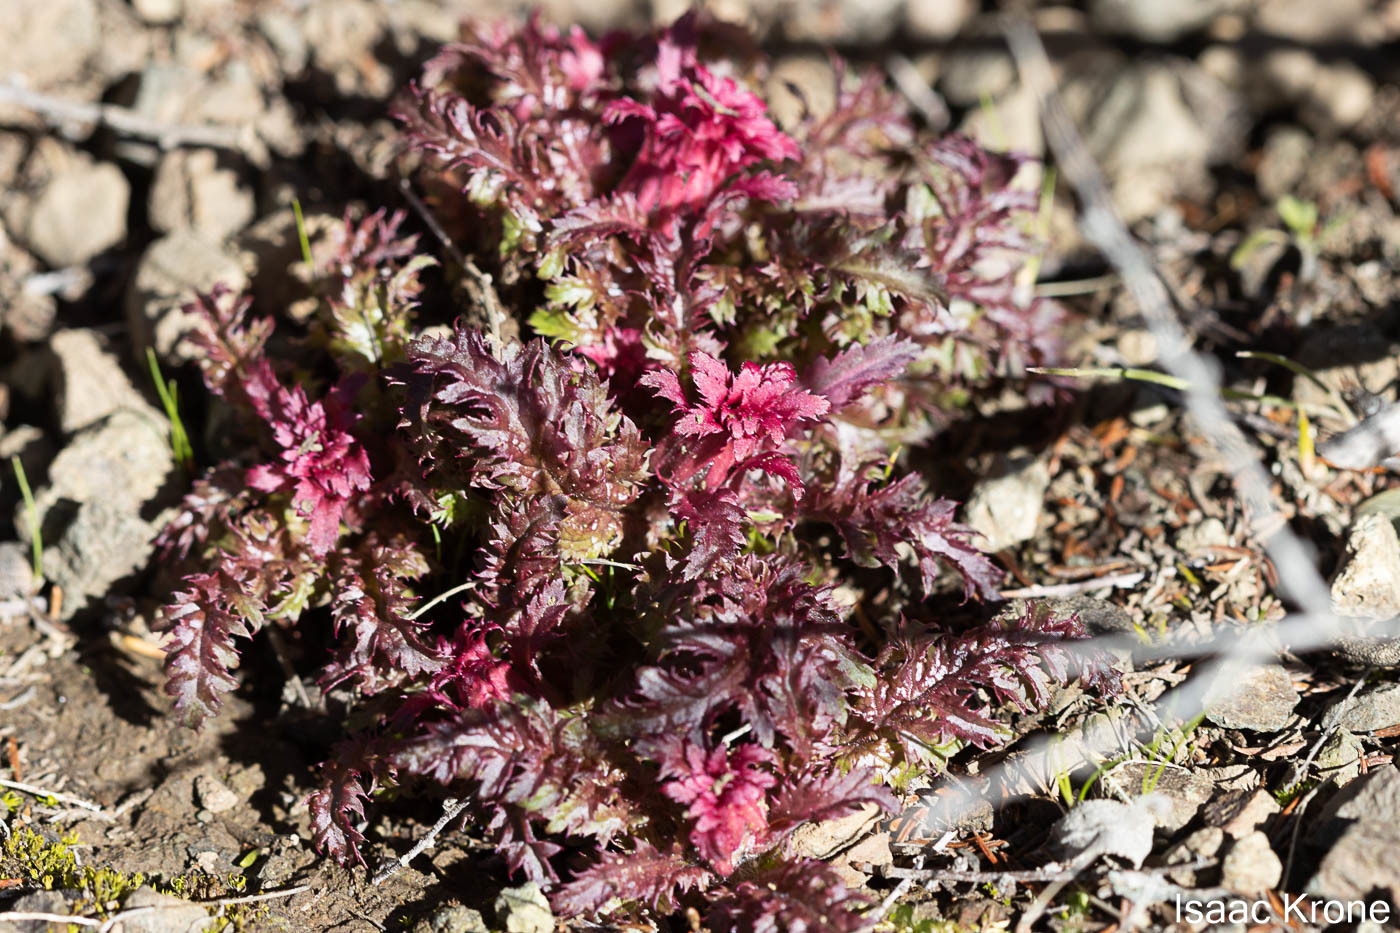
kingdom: Plantae
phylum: Tracheophyta
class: Magnoliopsida
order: Lamiales
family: Orobanchaceae
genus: Pedicularis
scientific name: Pedicularis densiflora
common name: Indian warrior
